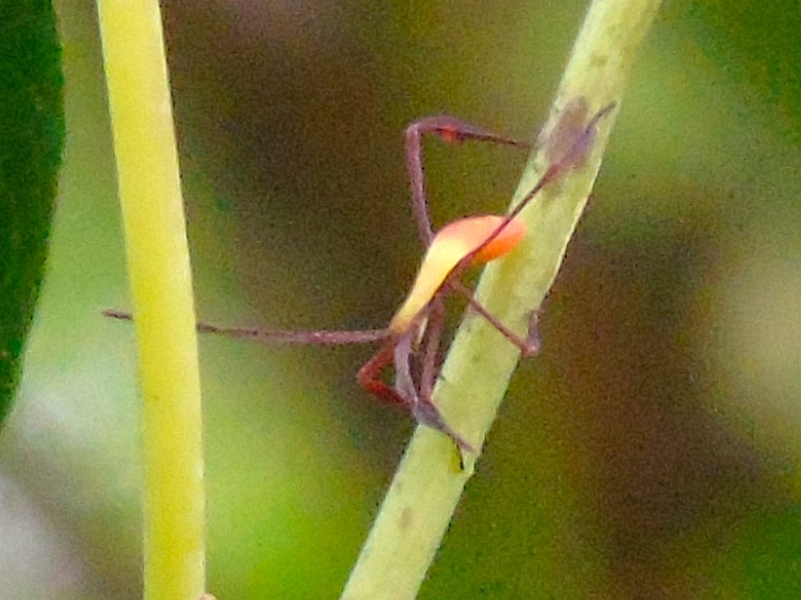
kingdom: Animalia
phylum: Arthropoda
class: Insecta
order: Hemiptera
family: Coreidae
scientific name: Coreidae
